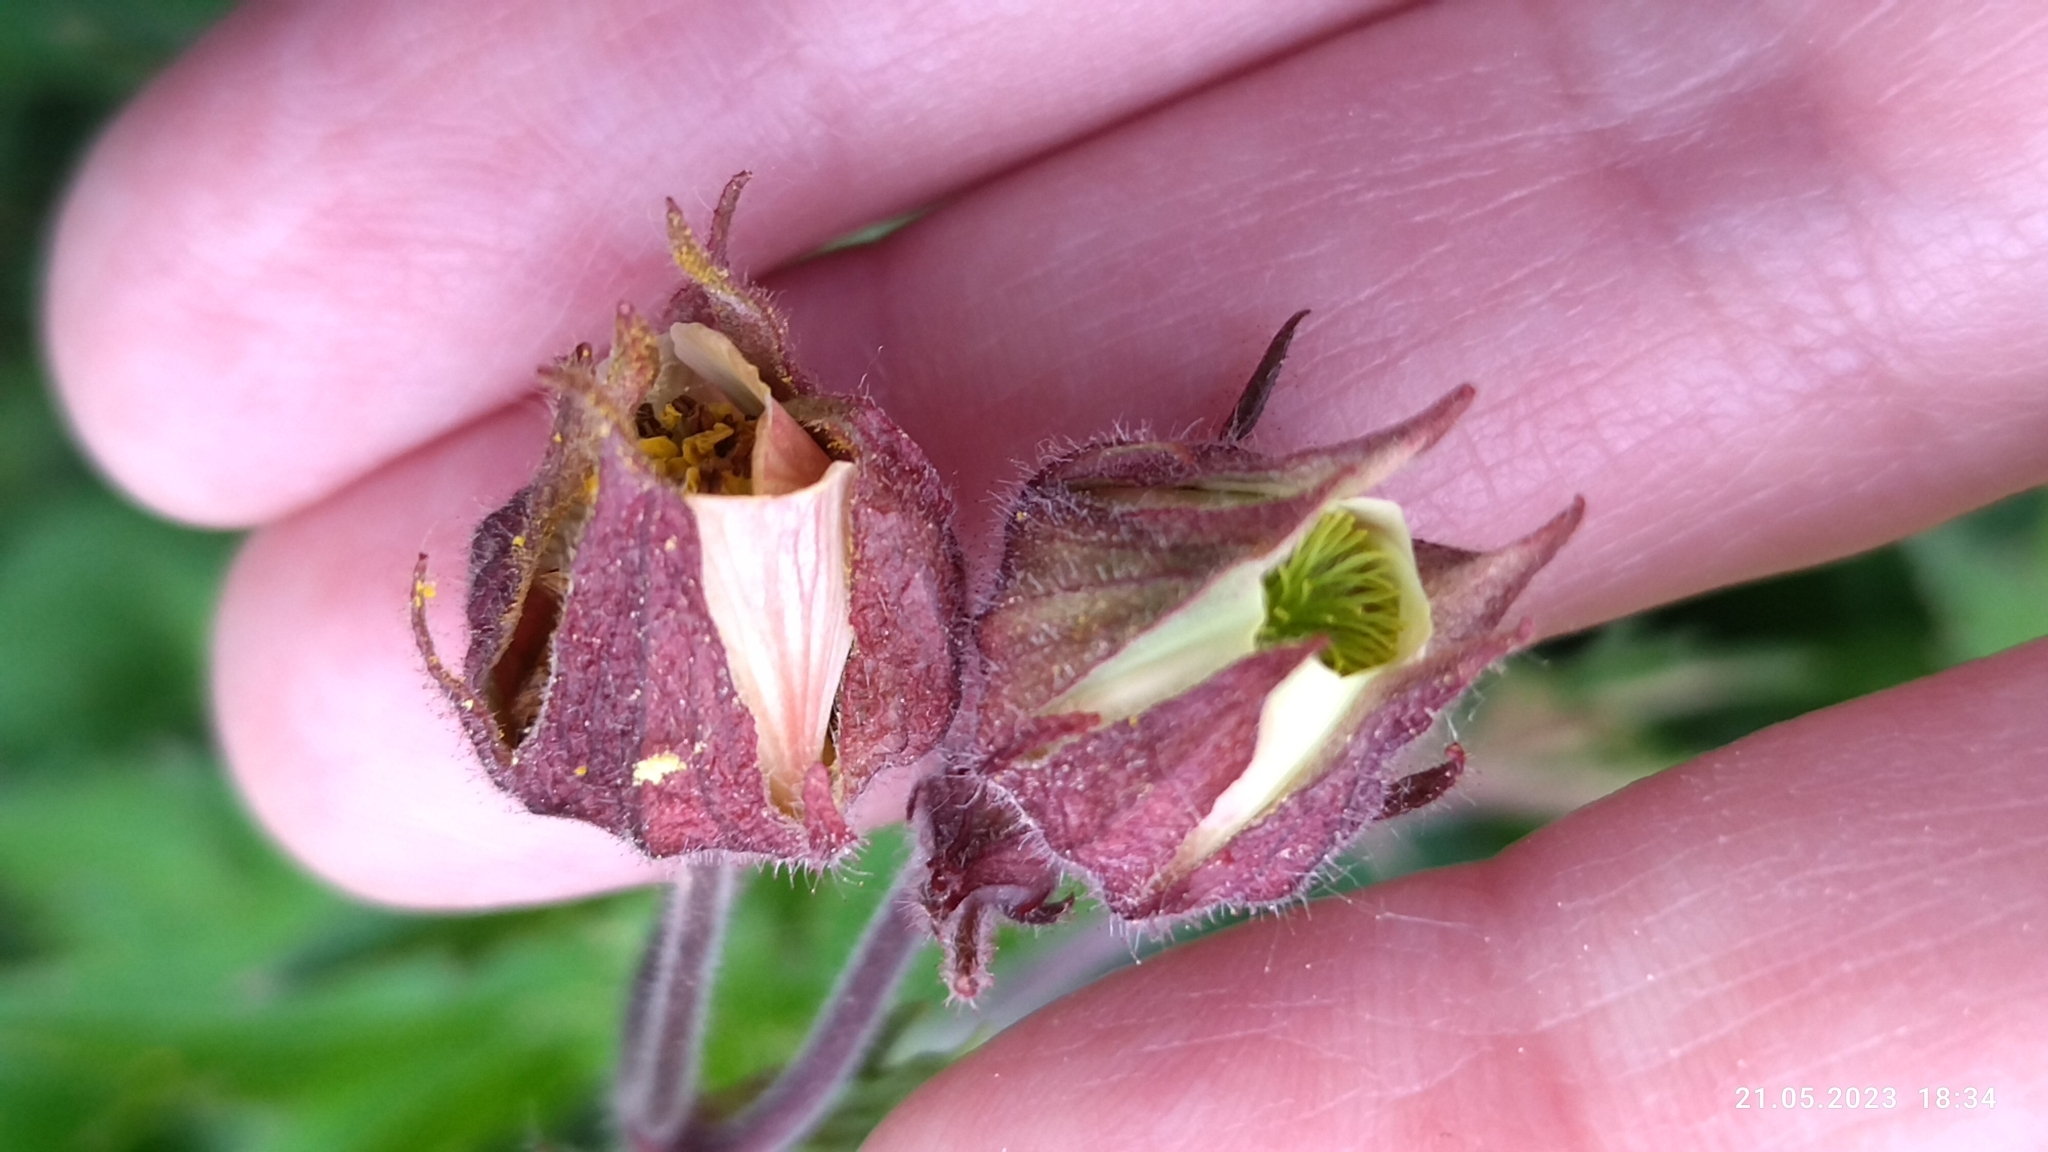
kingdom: Plantae
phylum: Tracheophyta
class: Magnoliopsida
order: Rosales
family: Rosaceae
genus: Geum
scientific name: Geum rivale
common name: Water avens
